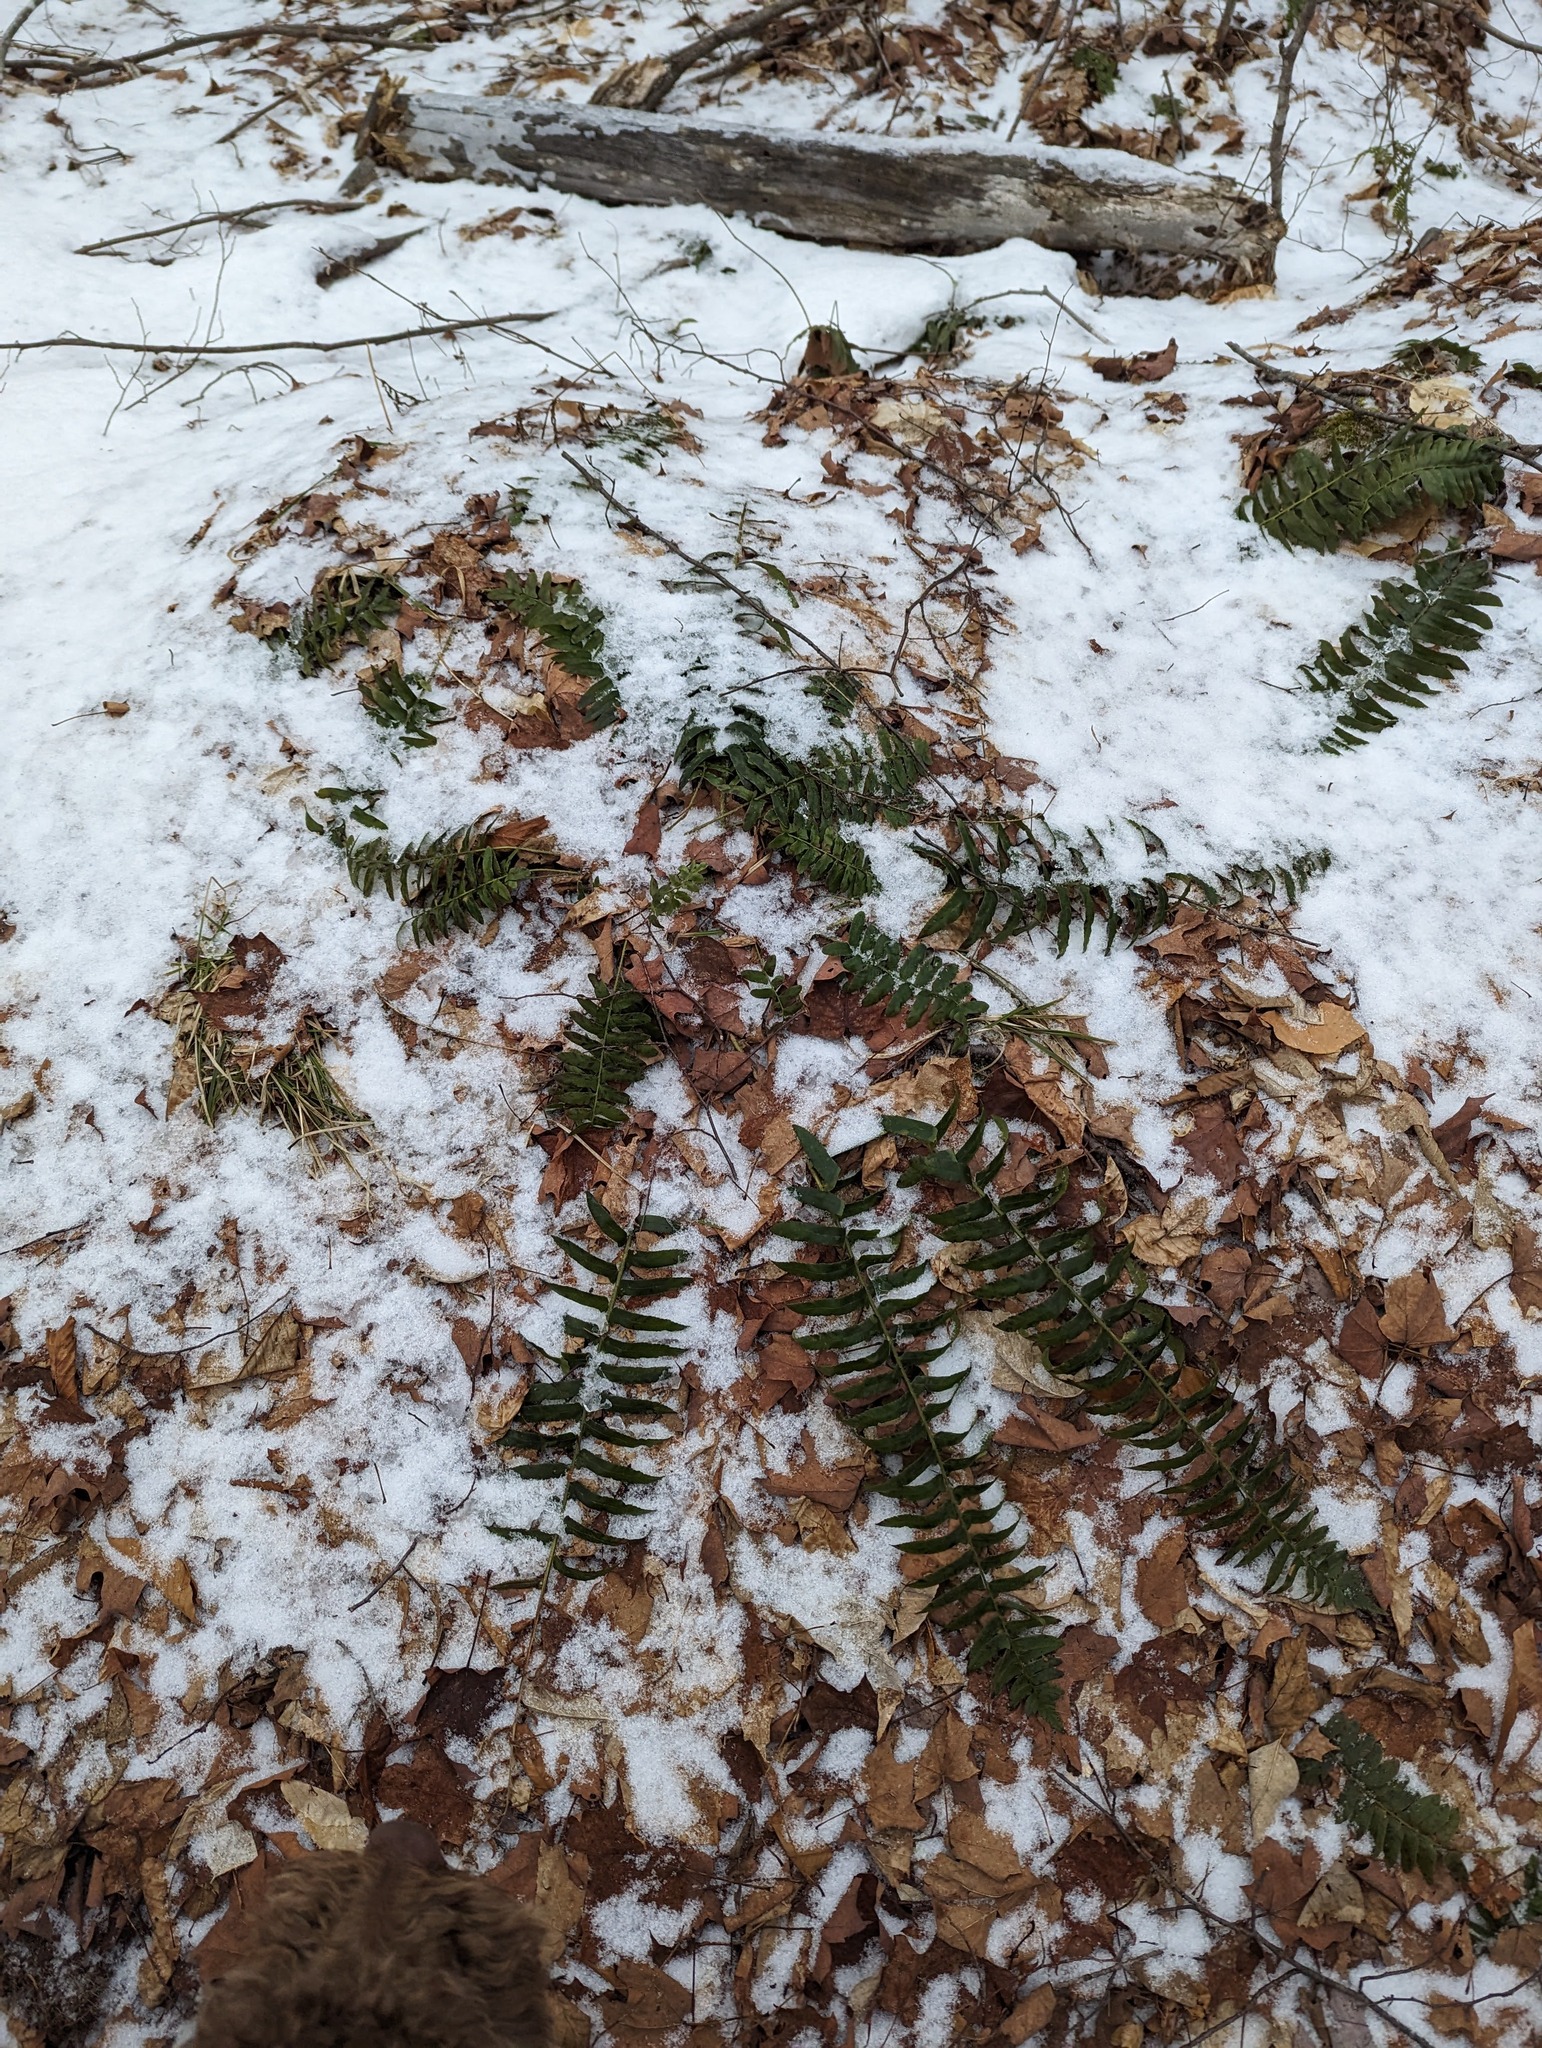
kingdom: Plantae
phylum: Tracheophyta
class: Polypodiopsida
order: Polypodiales
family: Dryopteridaceae
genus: Polystichum
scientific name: Polystichum acrostichoides
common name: Christmas fern
